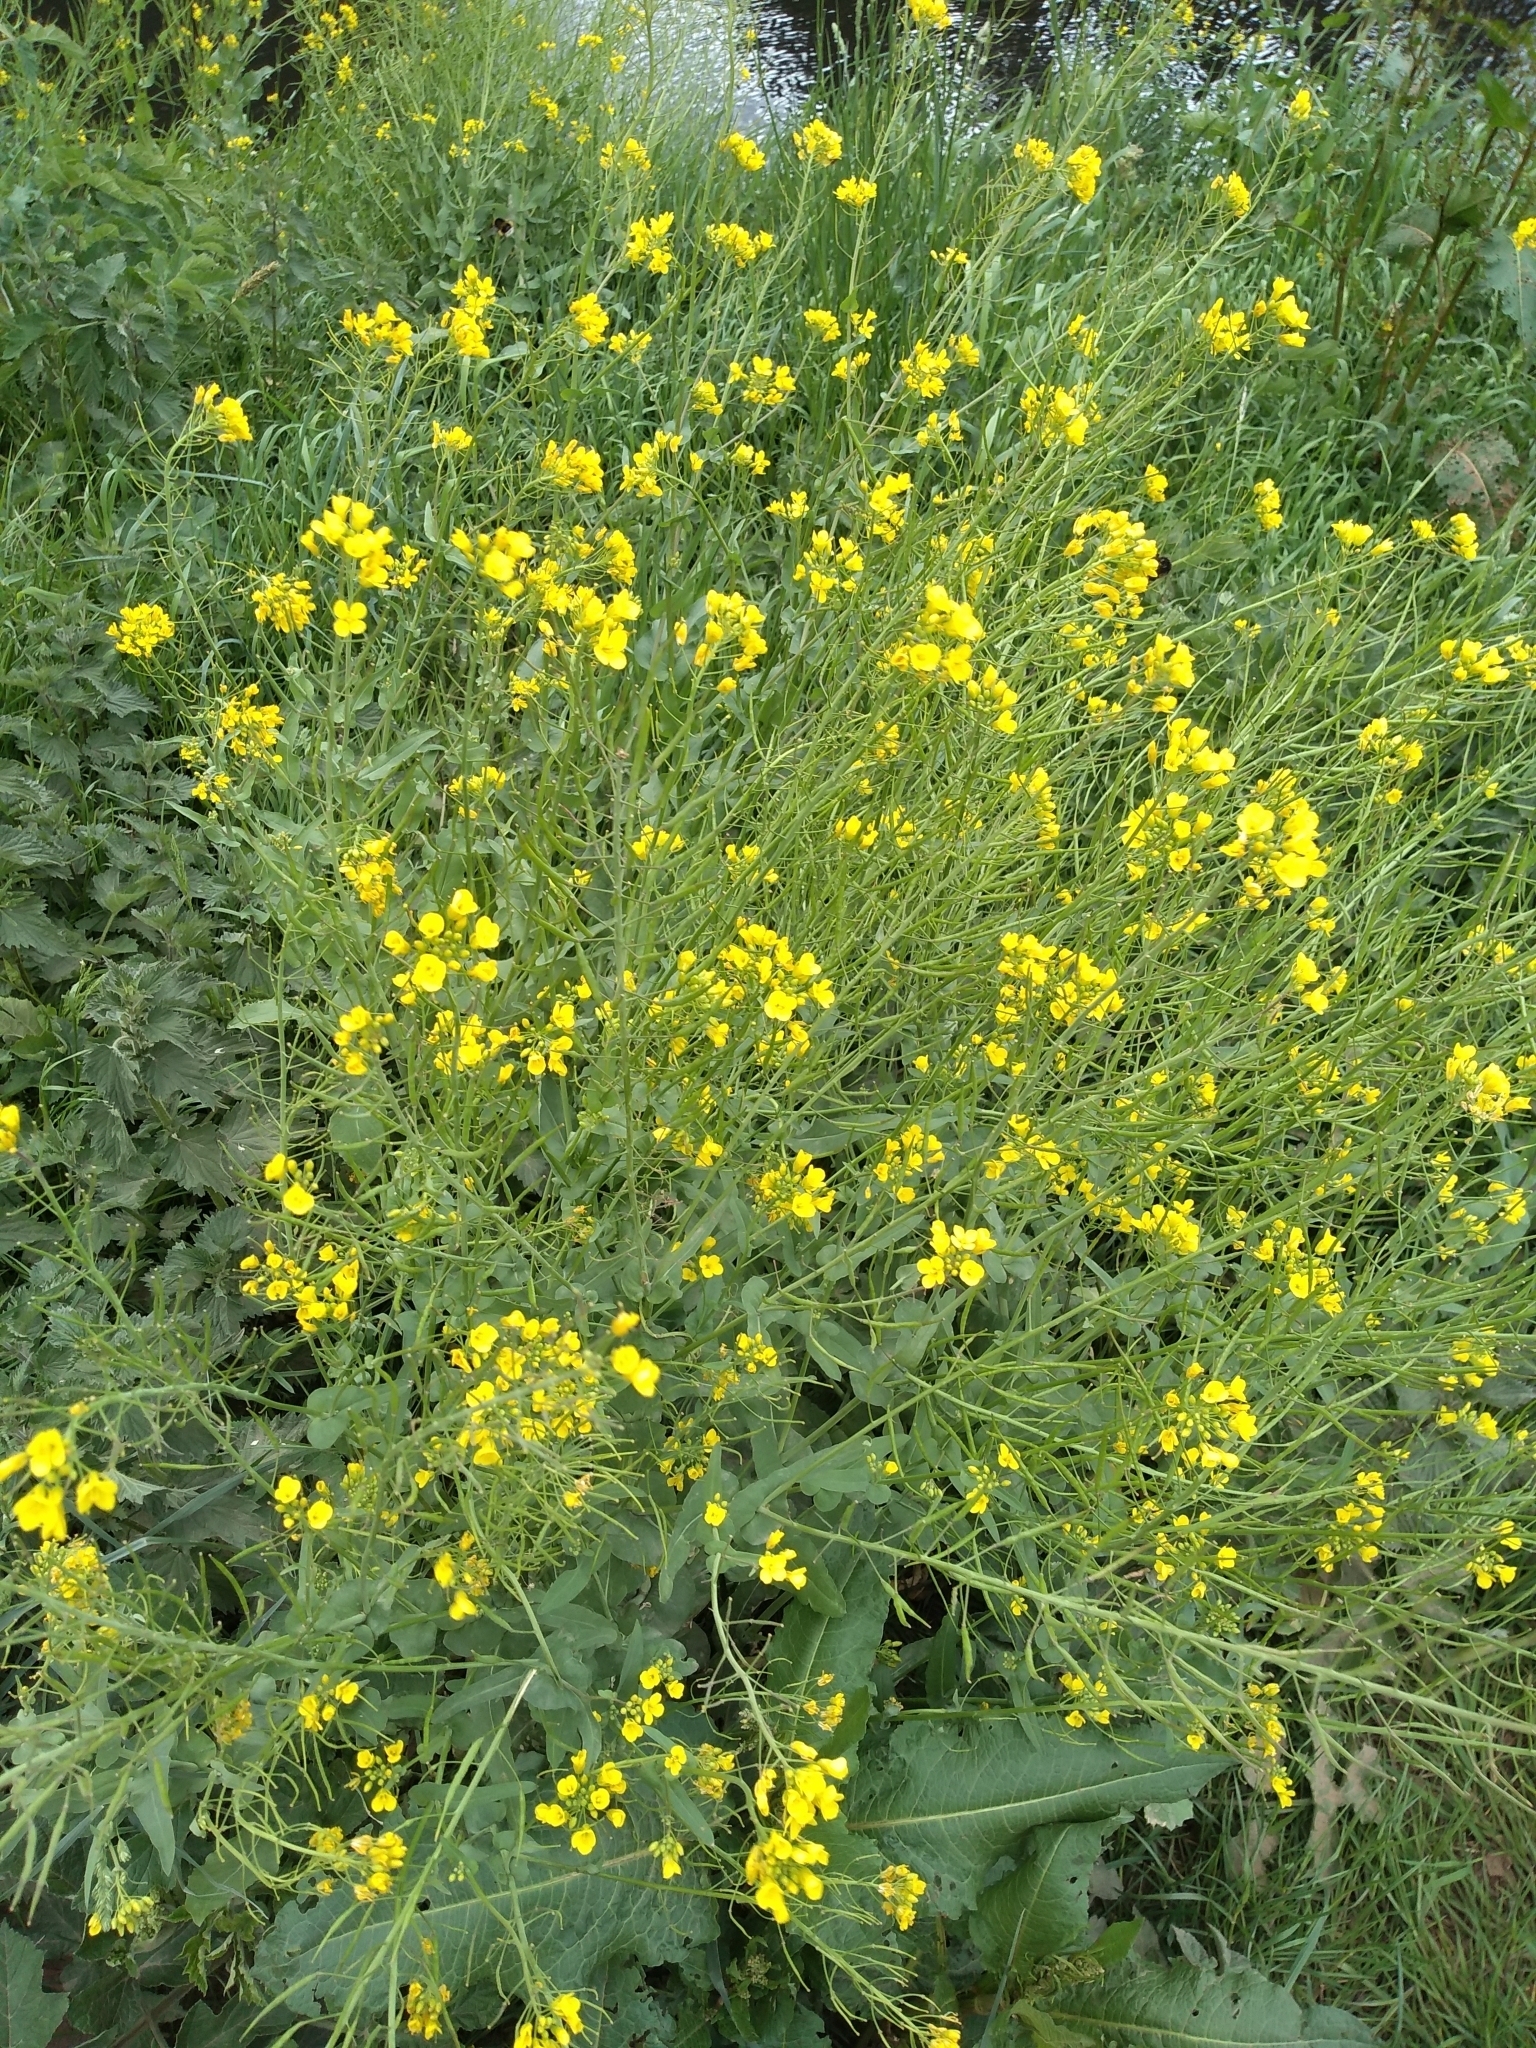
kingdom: Plantae
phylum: Tracheophyta
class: Magnoliopsida
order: Brassicales
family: Brassicaceae
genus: Brassica
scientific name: Brassica rapa
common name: Field mustard
